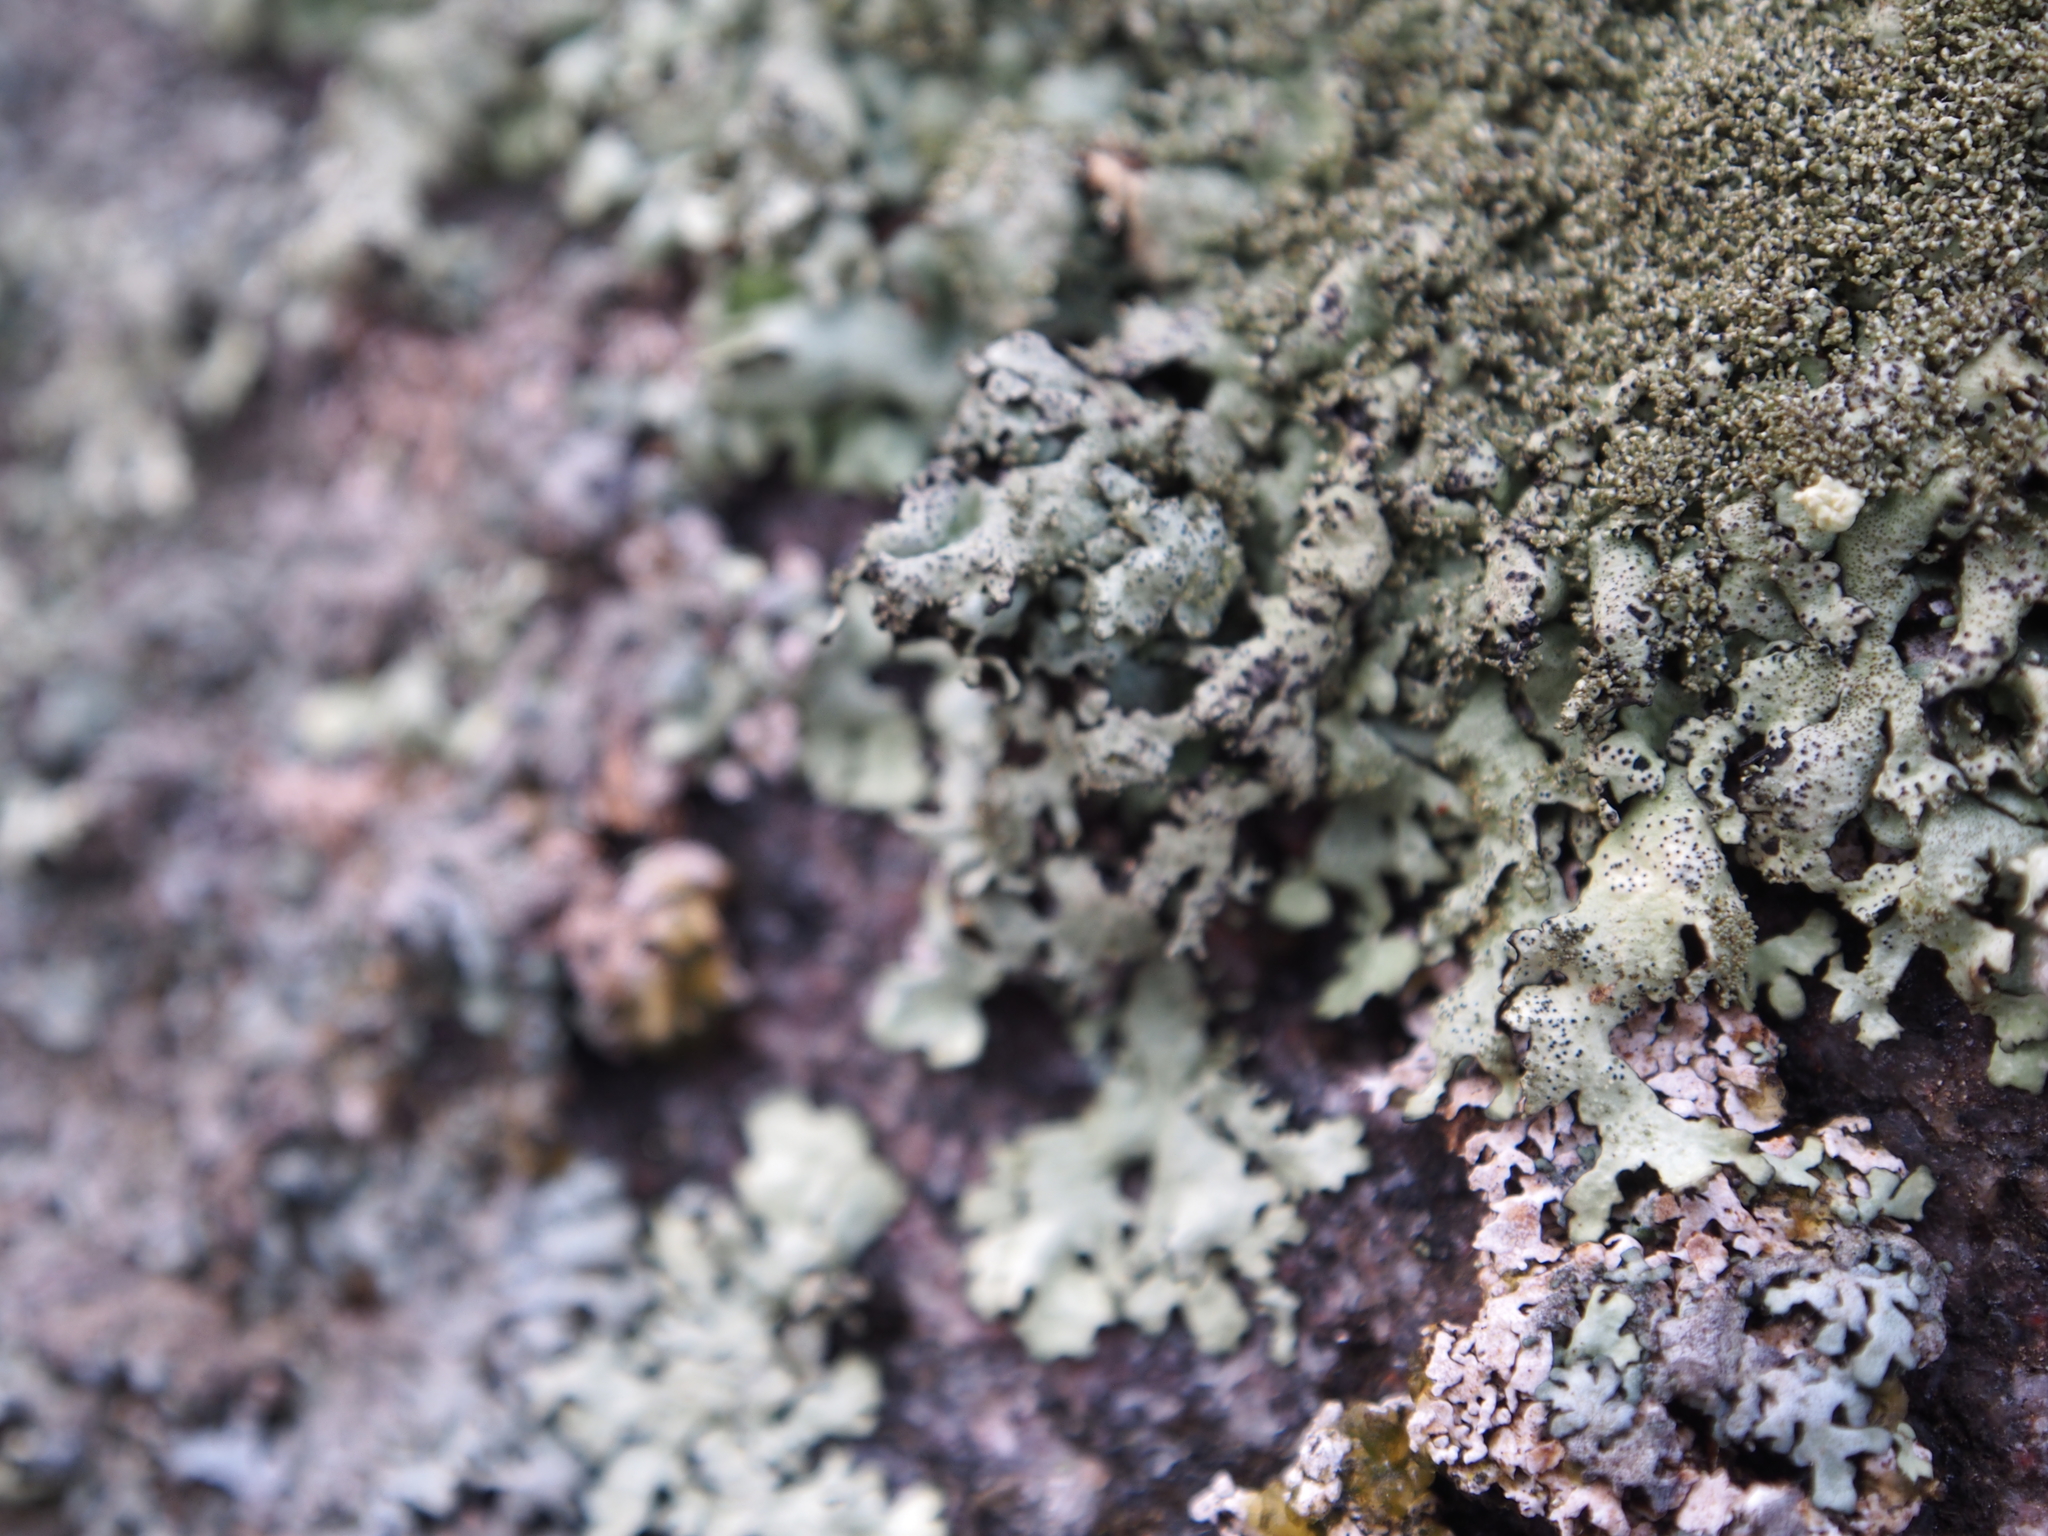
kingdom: Fungi
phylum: Ascomycota
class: Lecanoromycetes
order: Lecanorales
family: Parmeliaceae
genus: Xanthoparmelia
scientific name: Xanthoparmelia conspersa
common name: Peppered rock shield
